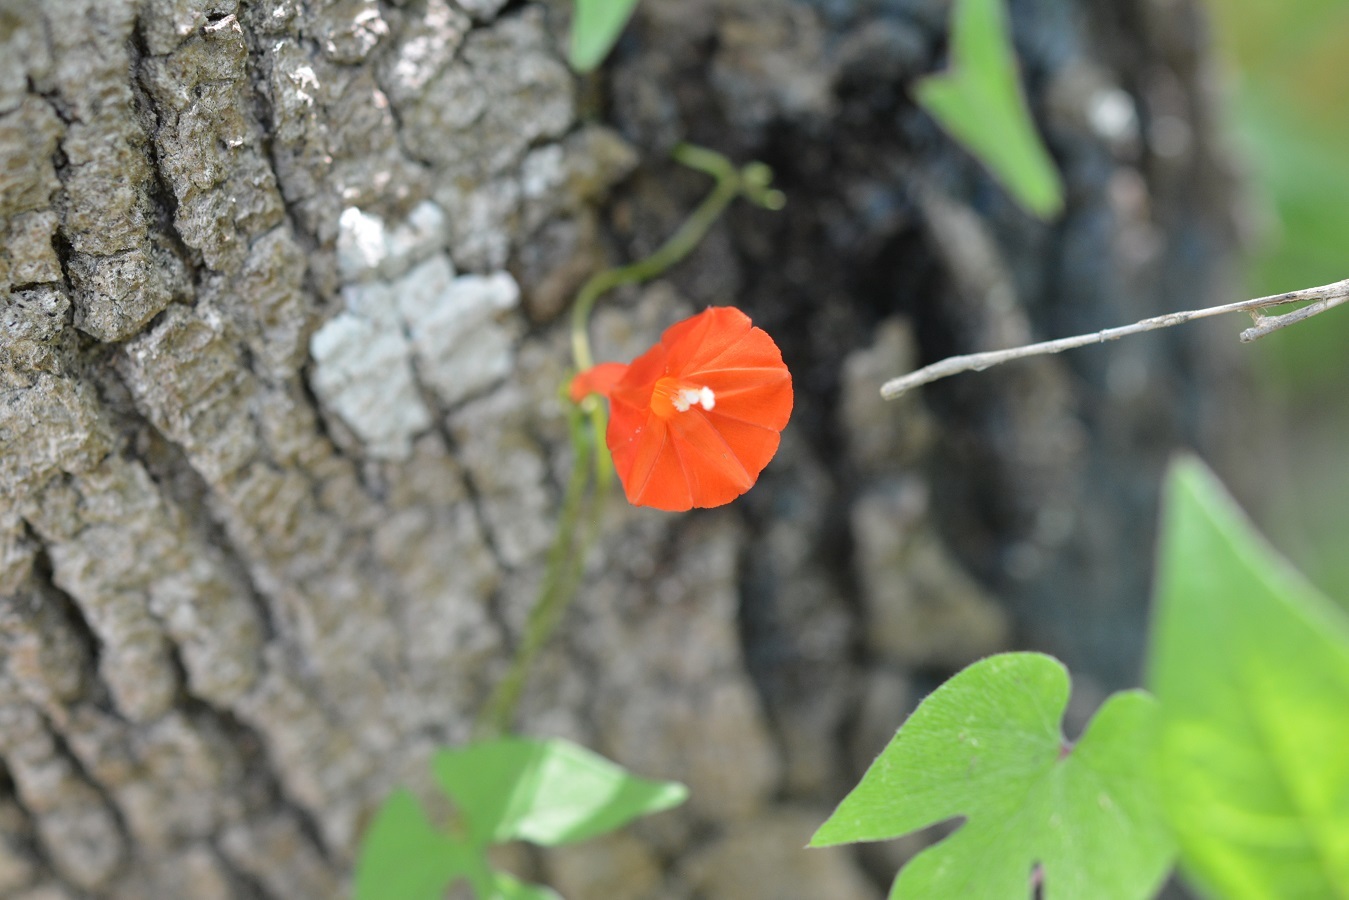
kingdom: Plantae
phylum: Tracheophyta
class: Magnoliopsida
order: Solanales
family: Convolvulaceae
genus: Ipomoea
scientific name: Ipomoea hederifolia
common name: Ivy-leaf morning-glory
